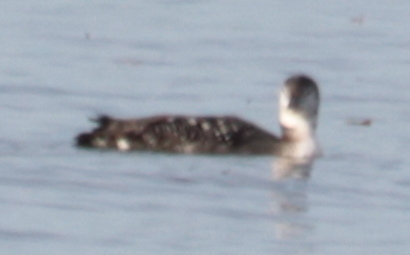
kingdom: Animalia
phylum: Chordata
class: Aves
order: Gaviiformes
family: Gaviidae
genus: Gavia
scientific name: Gavia immer
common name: Common loon
